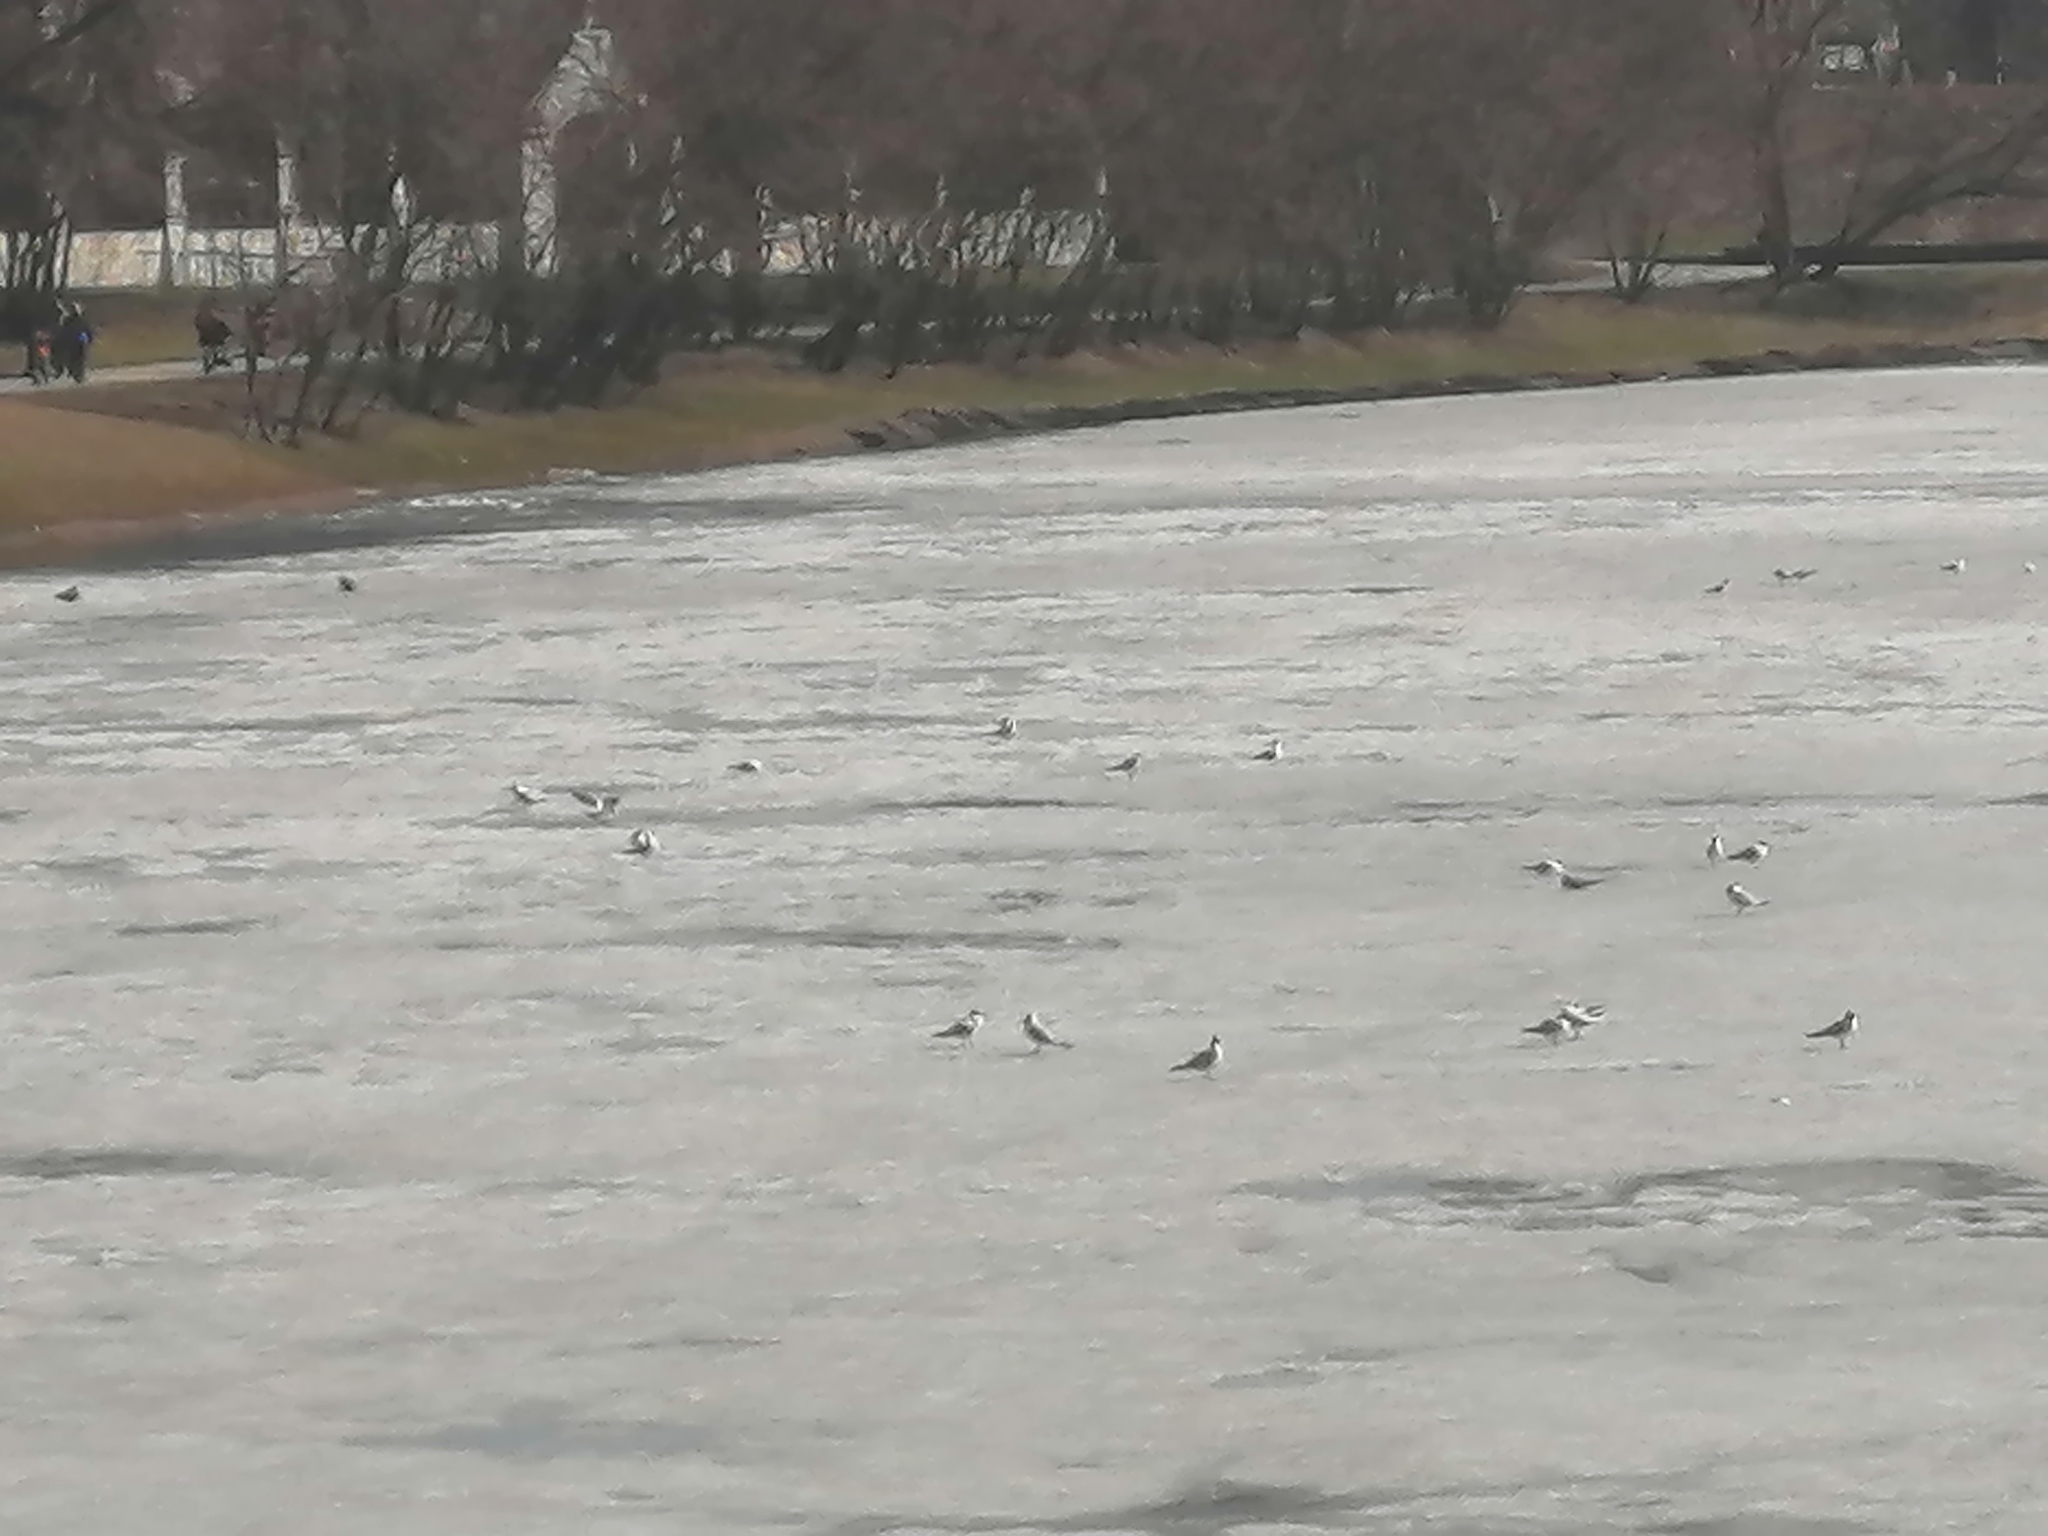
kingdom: Animalia
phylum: Chordata
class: Aves
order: Charadriiformes
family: Laridae
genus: Chroicocephalus
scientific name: Chroicocephalus ridibundus
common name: Black-headed gull
